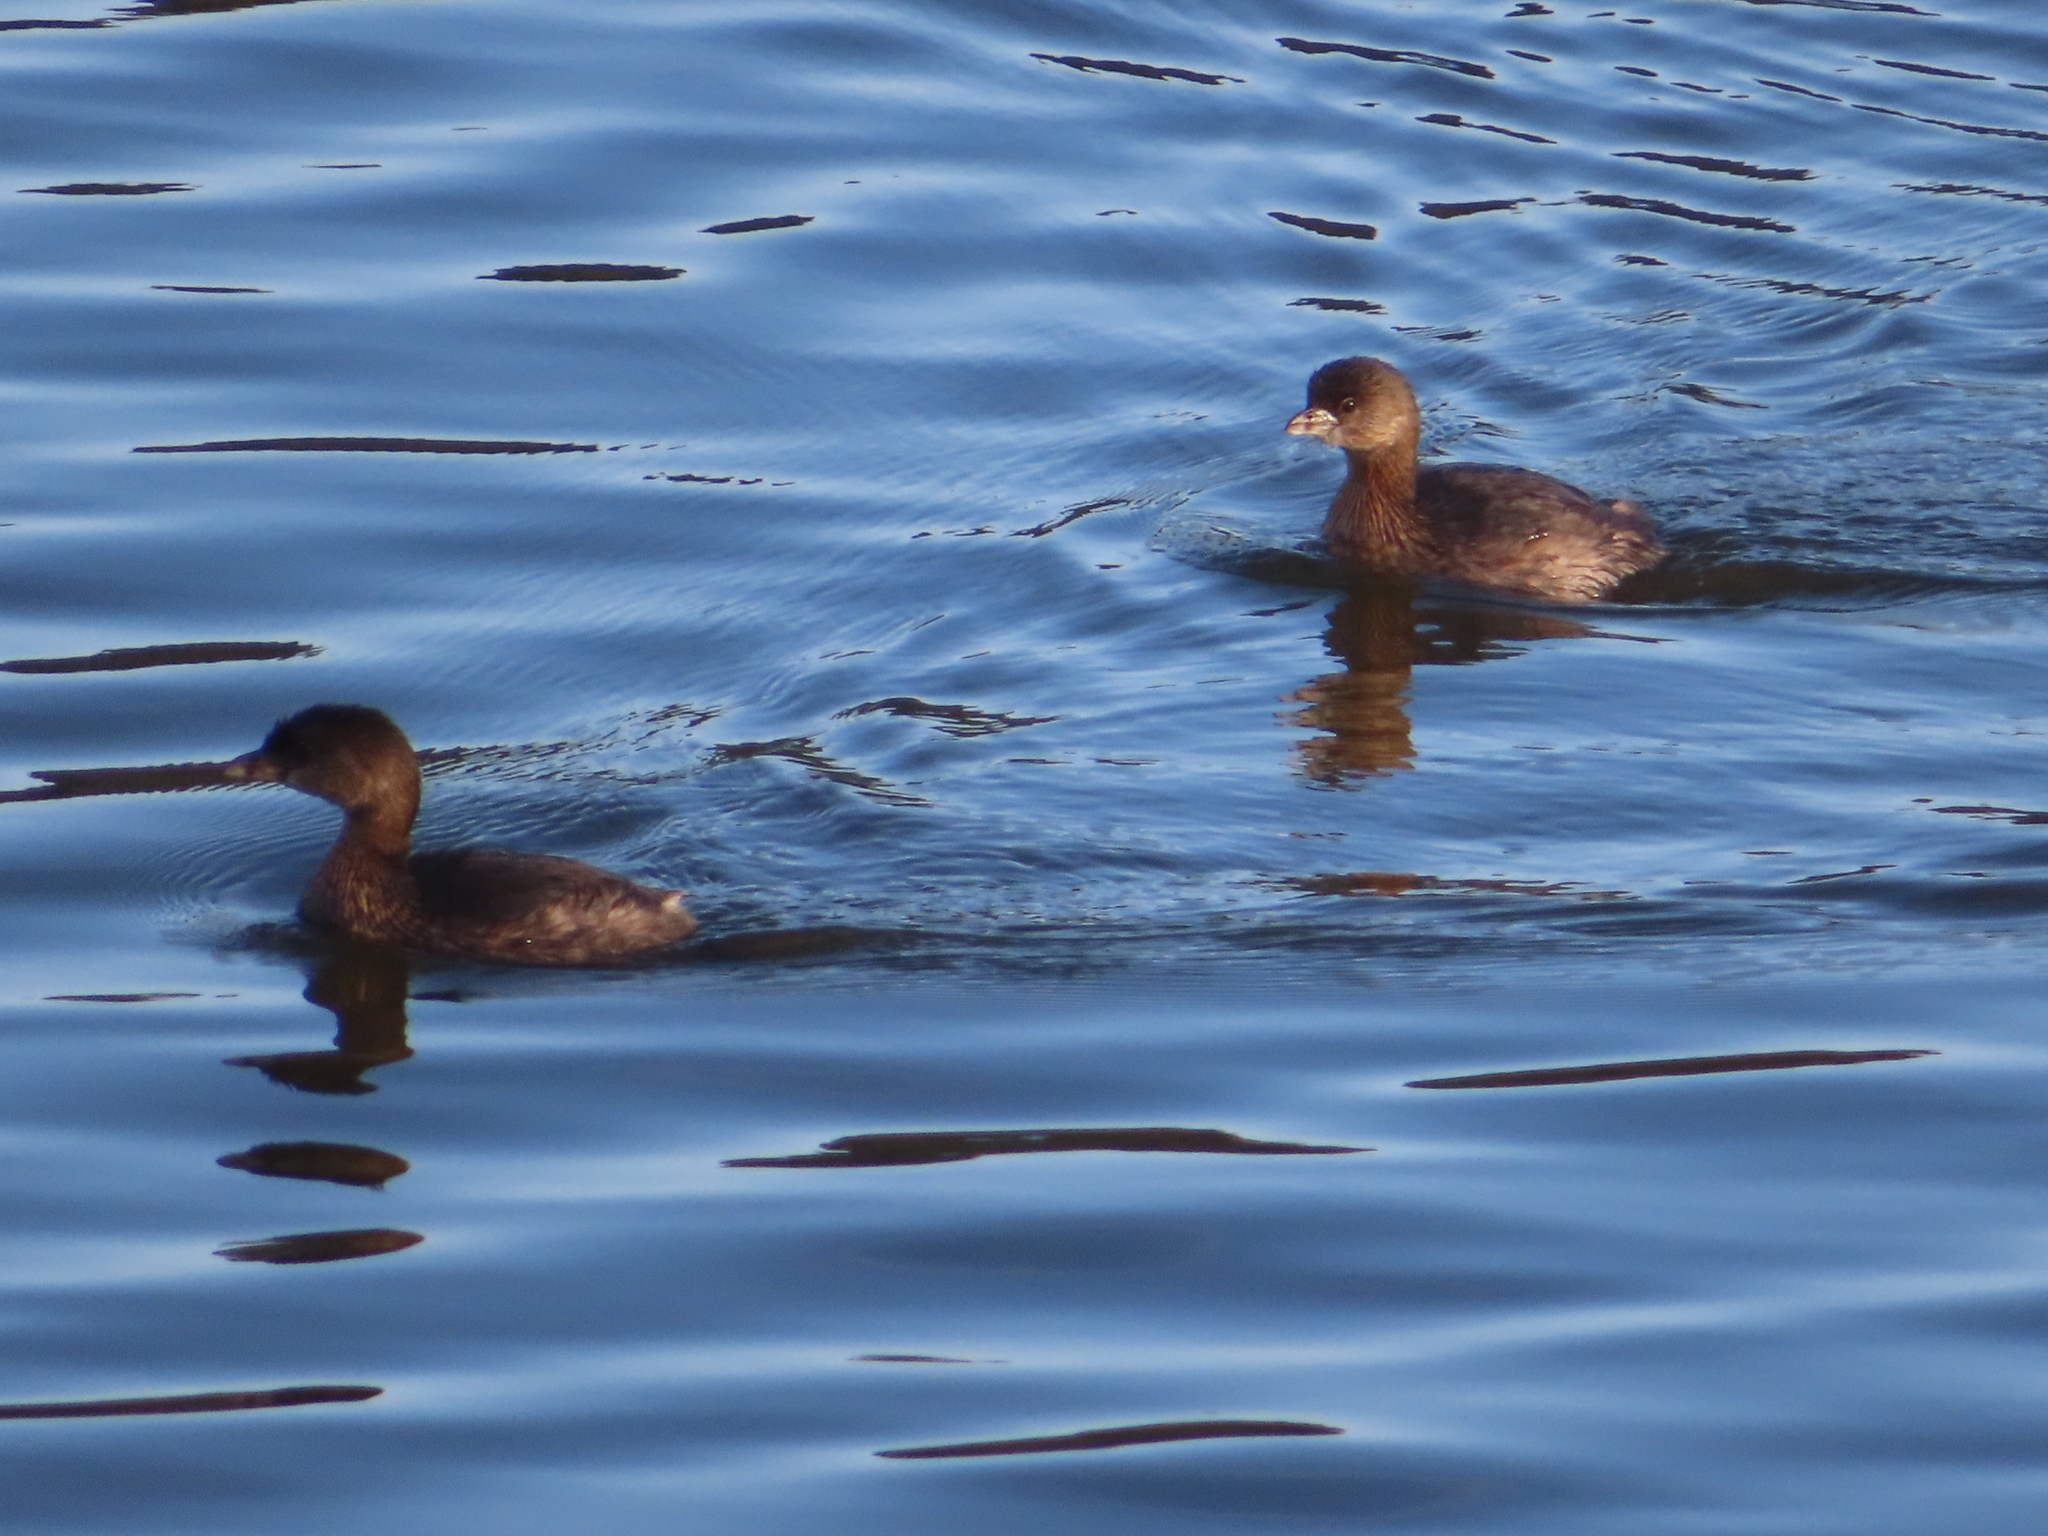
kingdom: Animalia
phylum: Chordata
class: Aves
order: Podicipediformes
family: Podicipedidae
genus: Podilymbus
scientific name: Podilymbus podiceps
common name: Pied-billed grebe
